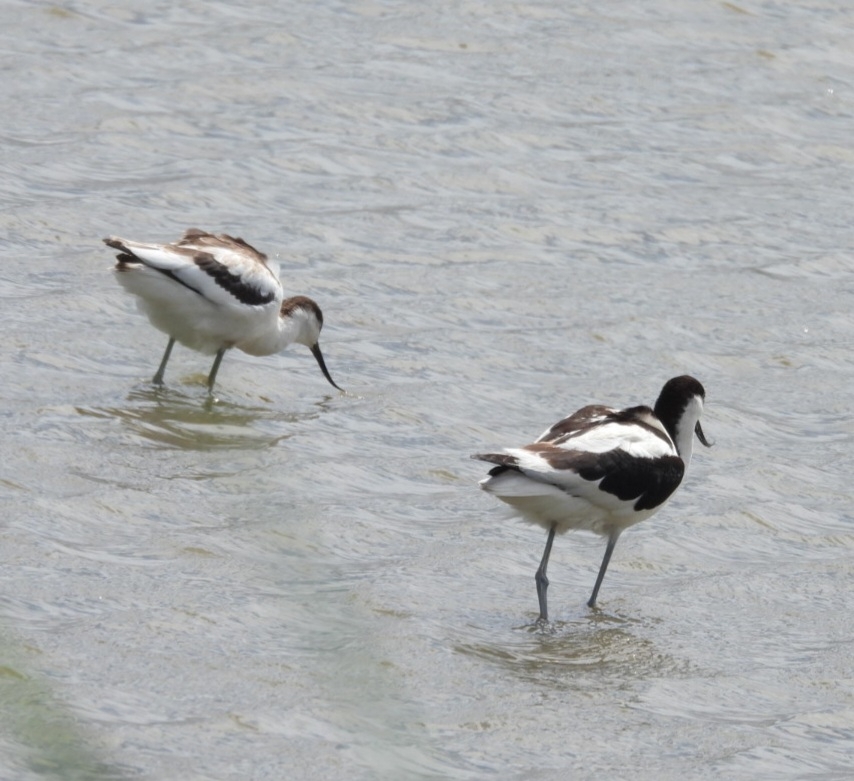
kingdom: Animalia
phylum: Chordata
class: Aves
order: Charadriiformes
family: Recurvirostridae
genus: Recurvirostra
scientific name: Recurvirostra avosetta
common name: Pied avocet
